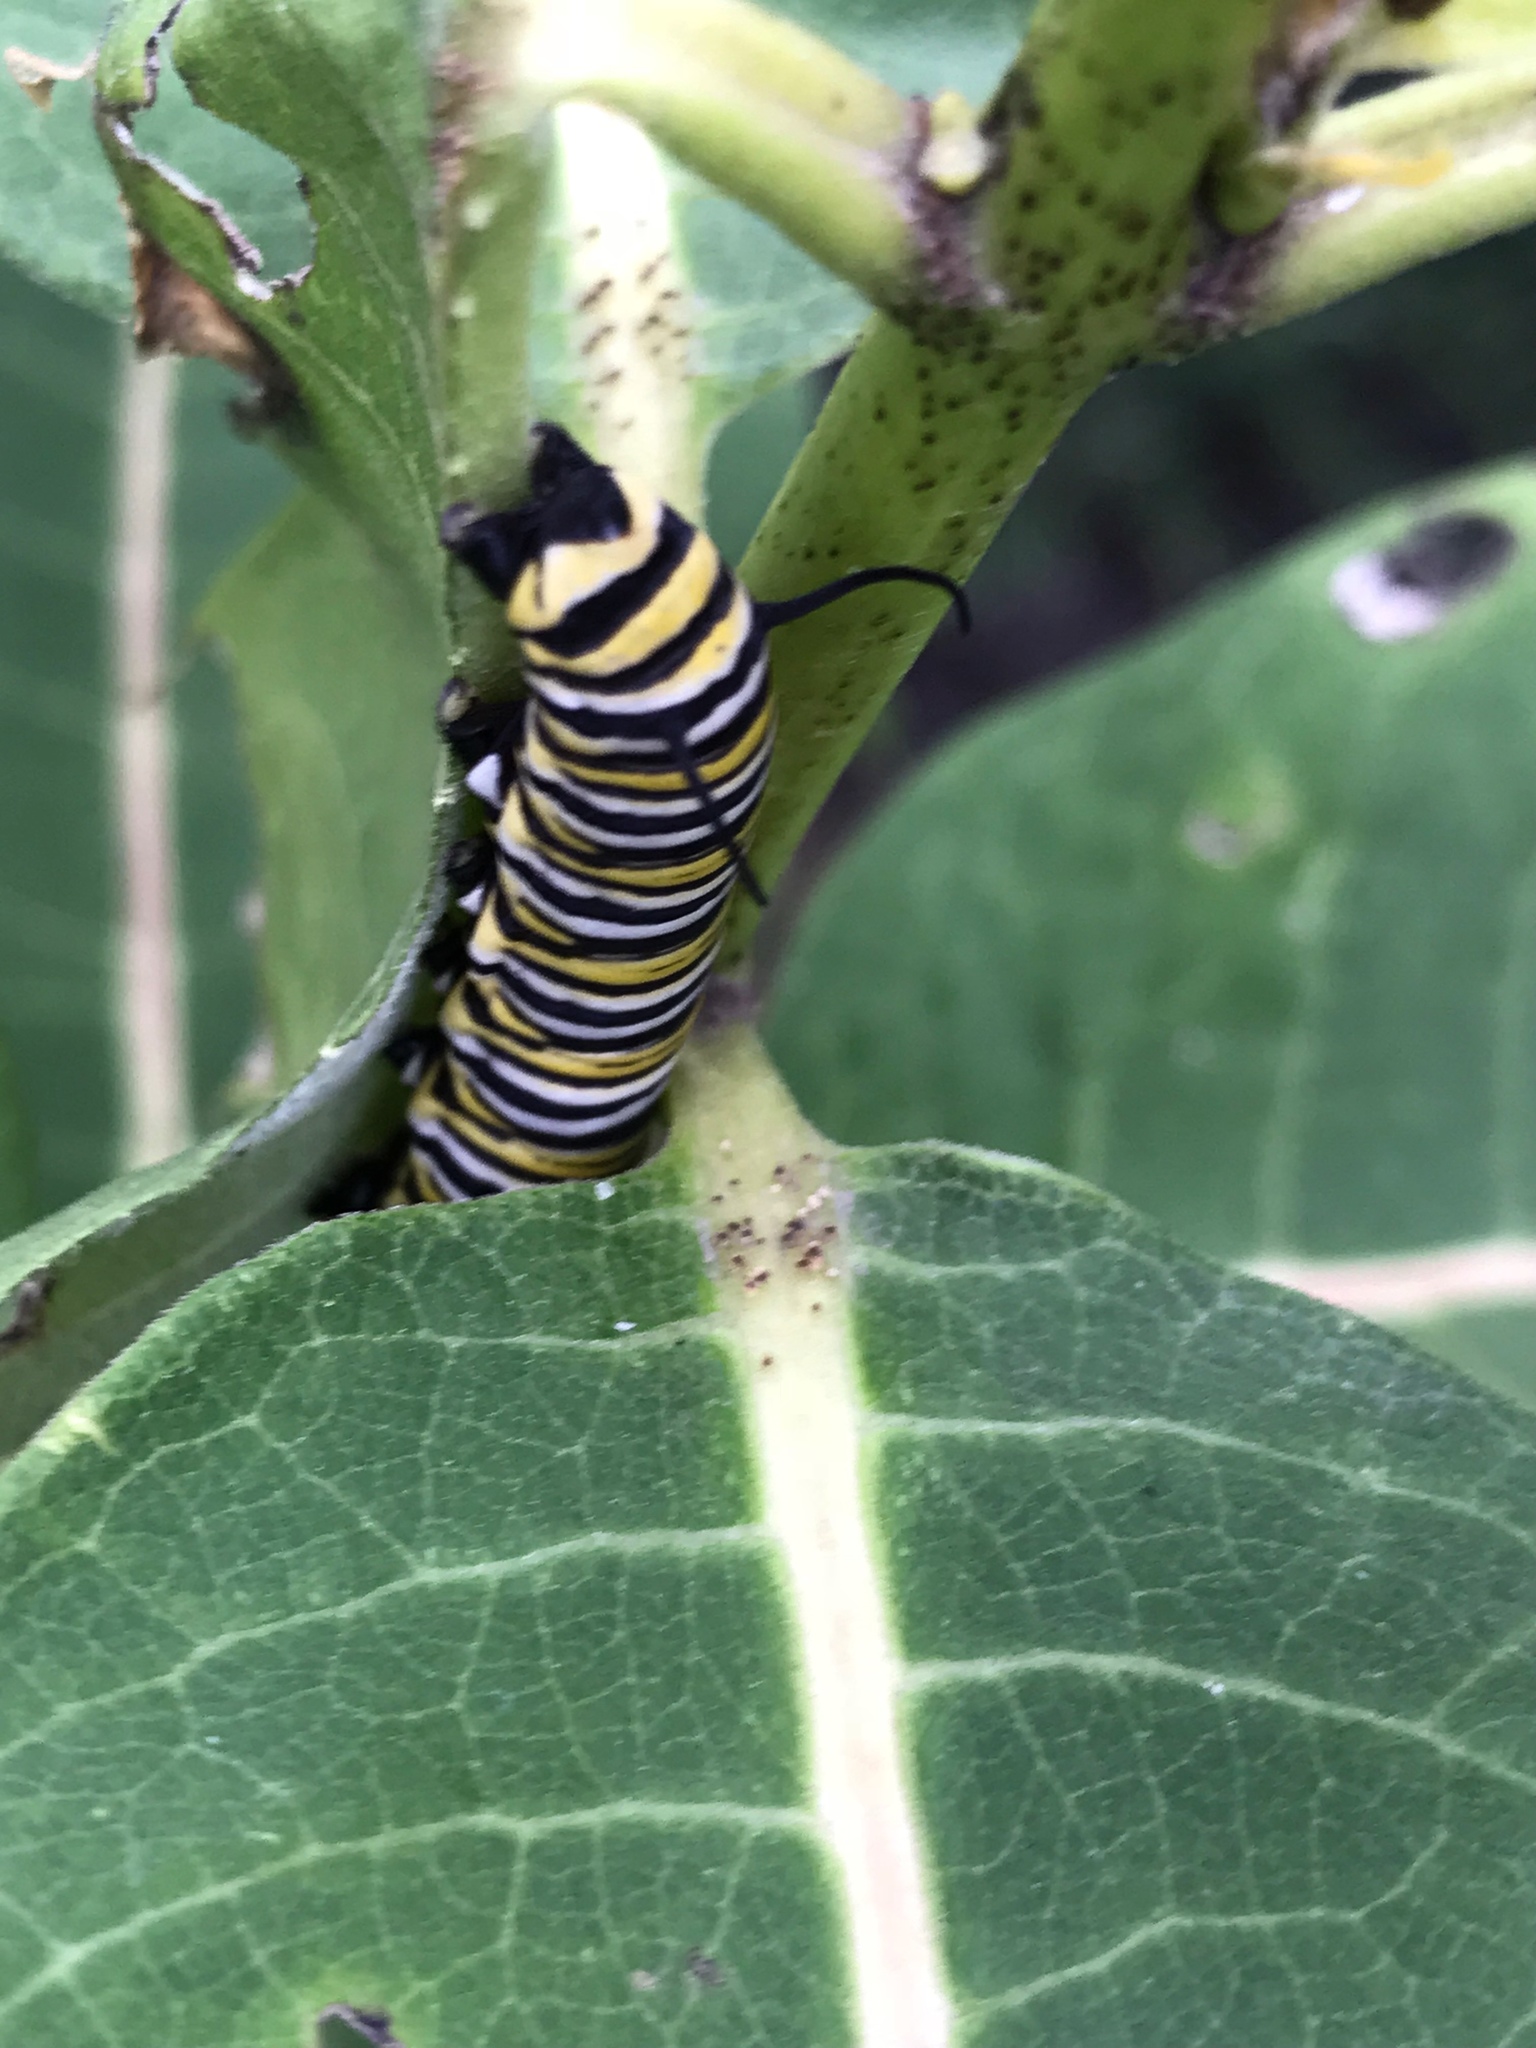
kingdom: Animalia
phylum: Arthropoda
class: Insecta
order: Lepidoptera
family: Nymphalidae
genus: Danaus
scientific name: Danaus plexippus
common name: Monarch
